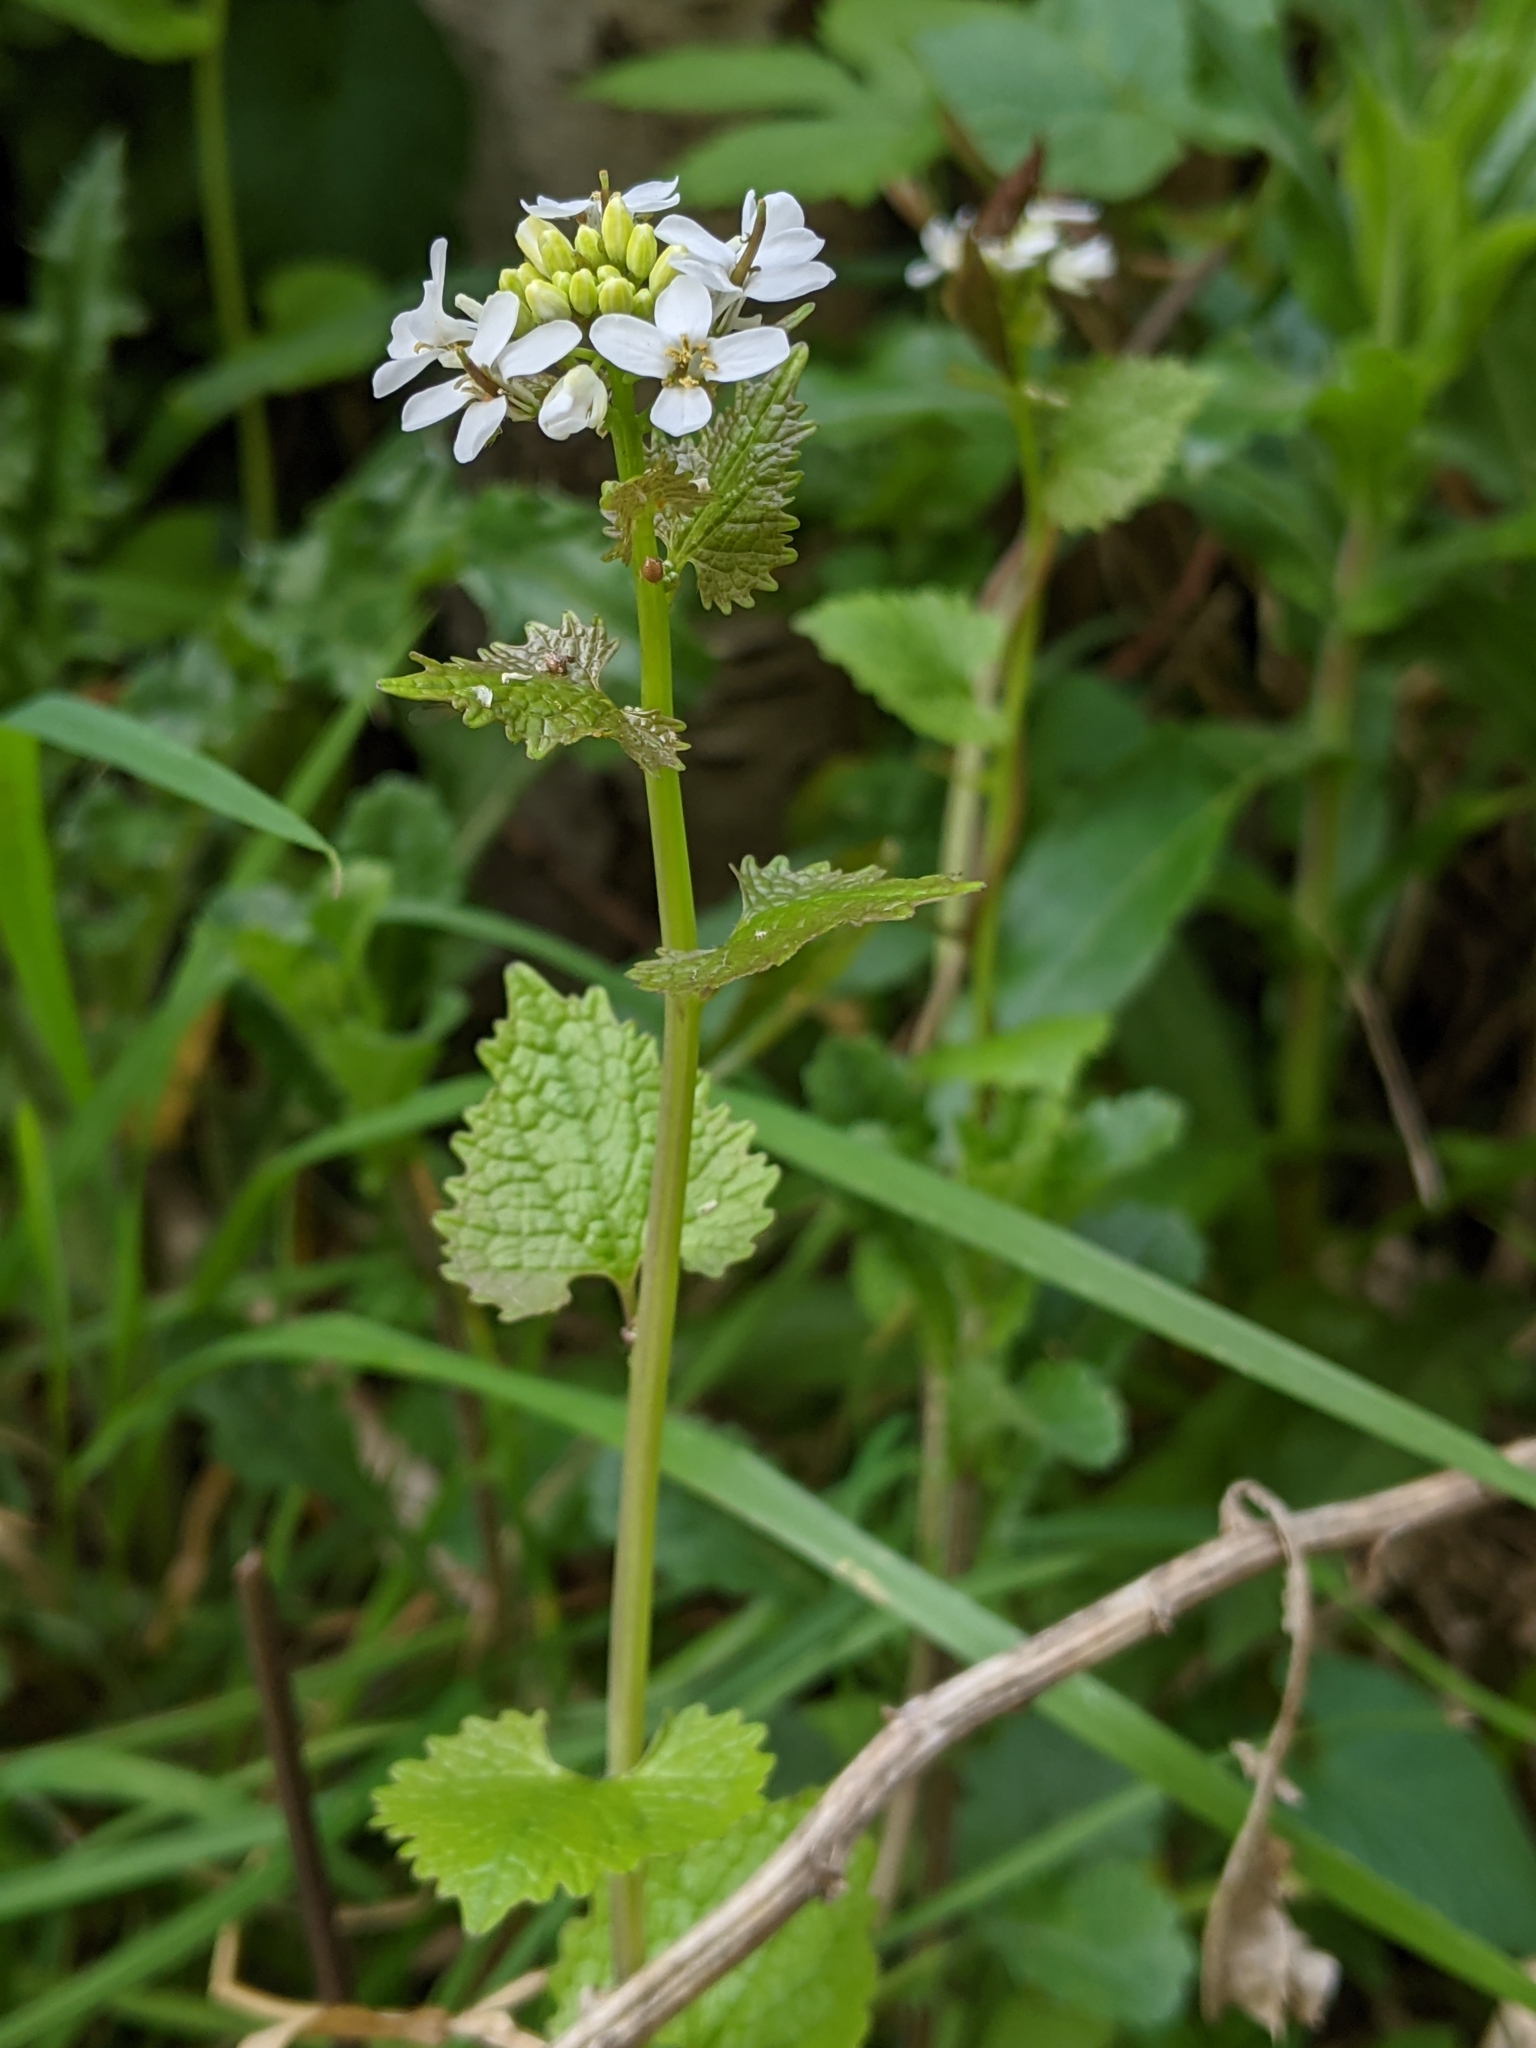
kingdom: Plantae
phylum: Tracheophyta
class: Magnoliopsida
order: Brassicales
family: Brassicaceae
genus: Alliaria
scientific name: Alliaria petiolata
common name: Garlic mustard
